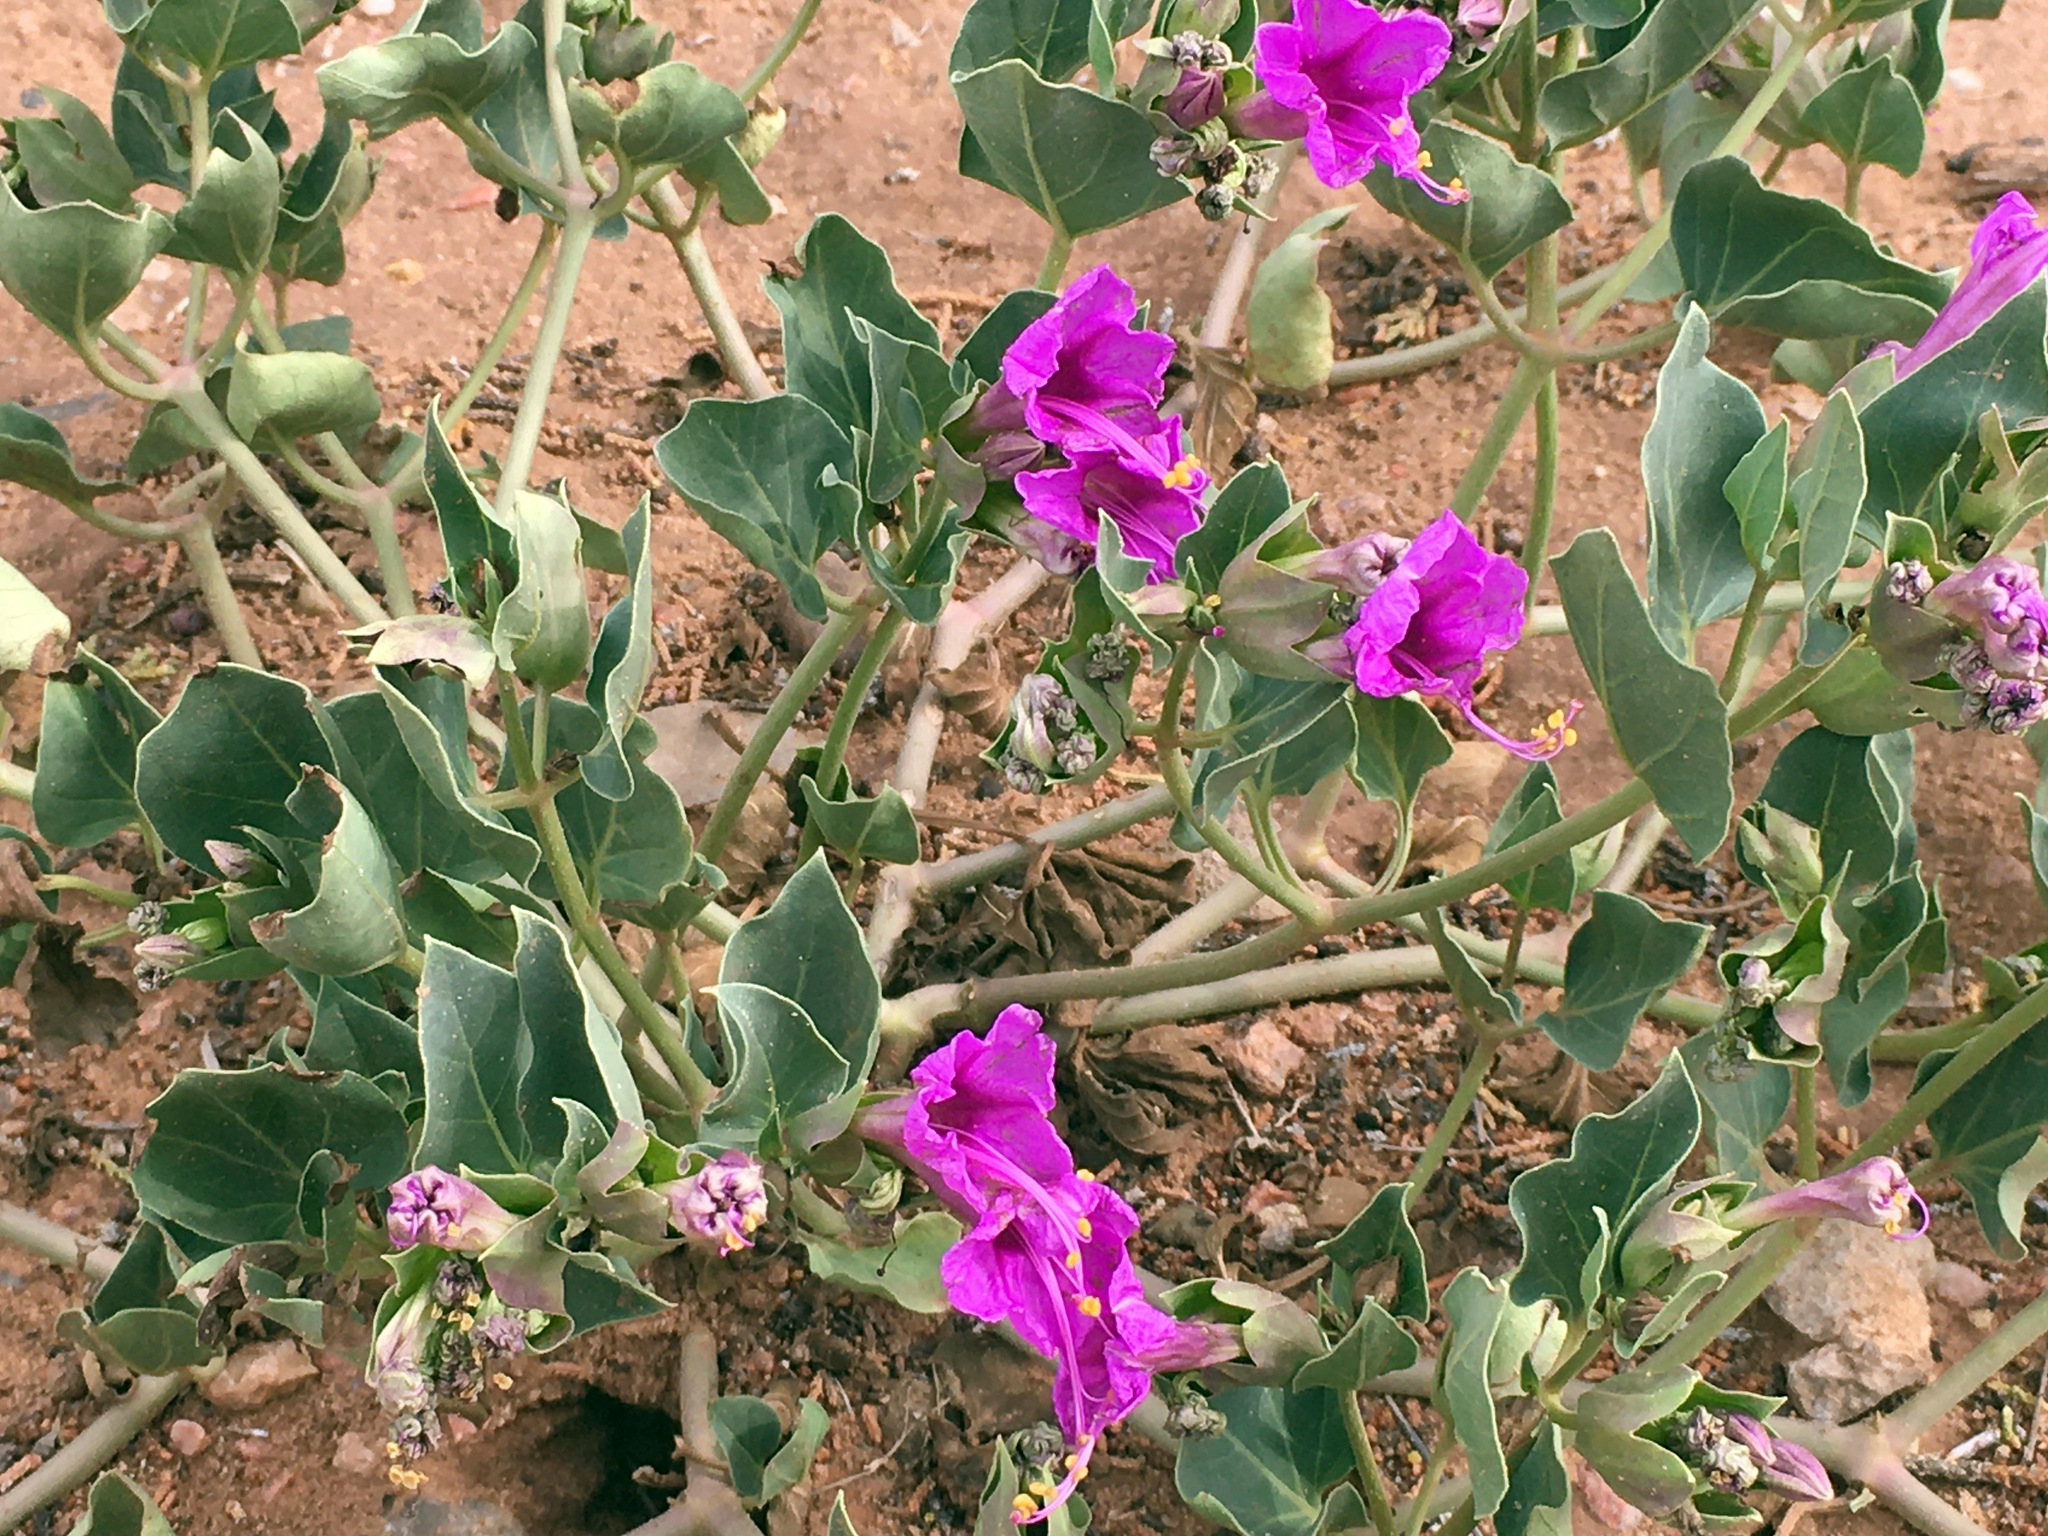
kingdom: Plantae
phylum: Tracheophyta
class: Magnoliopsida
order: Caryophyllales
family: Nyctaginaceae
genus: Mirabilis
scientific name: Mirabilis multiflora
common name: Froebel's four-o'clock
